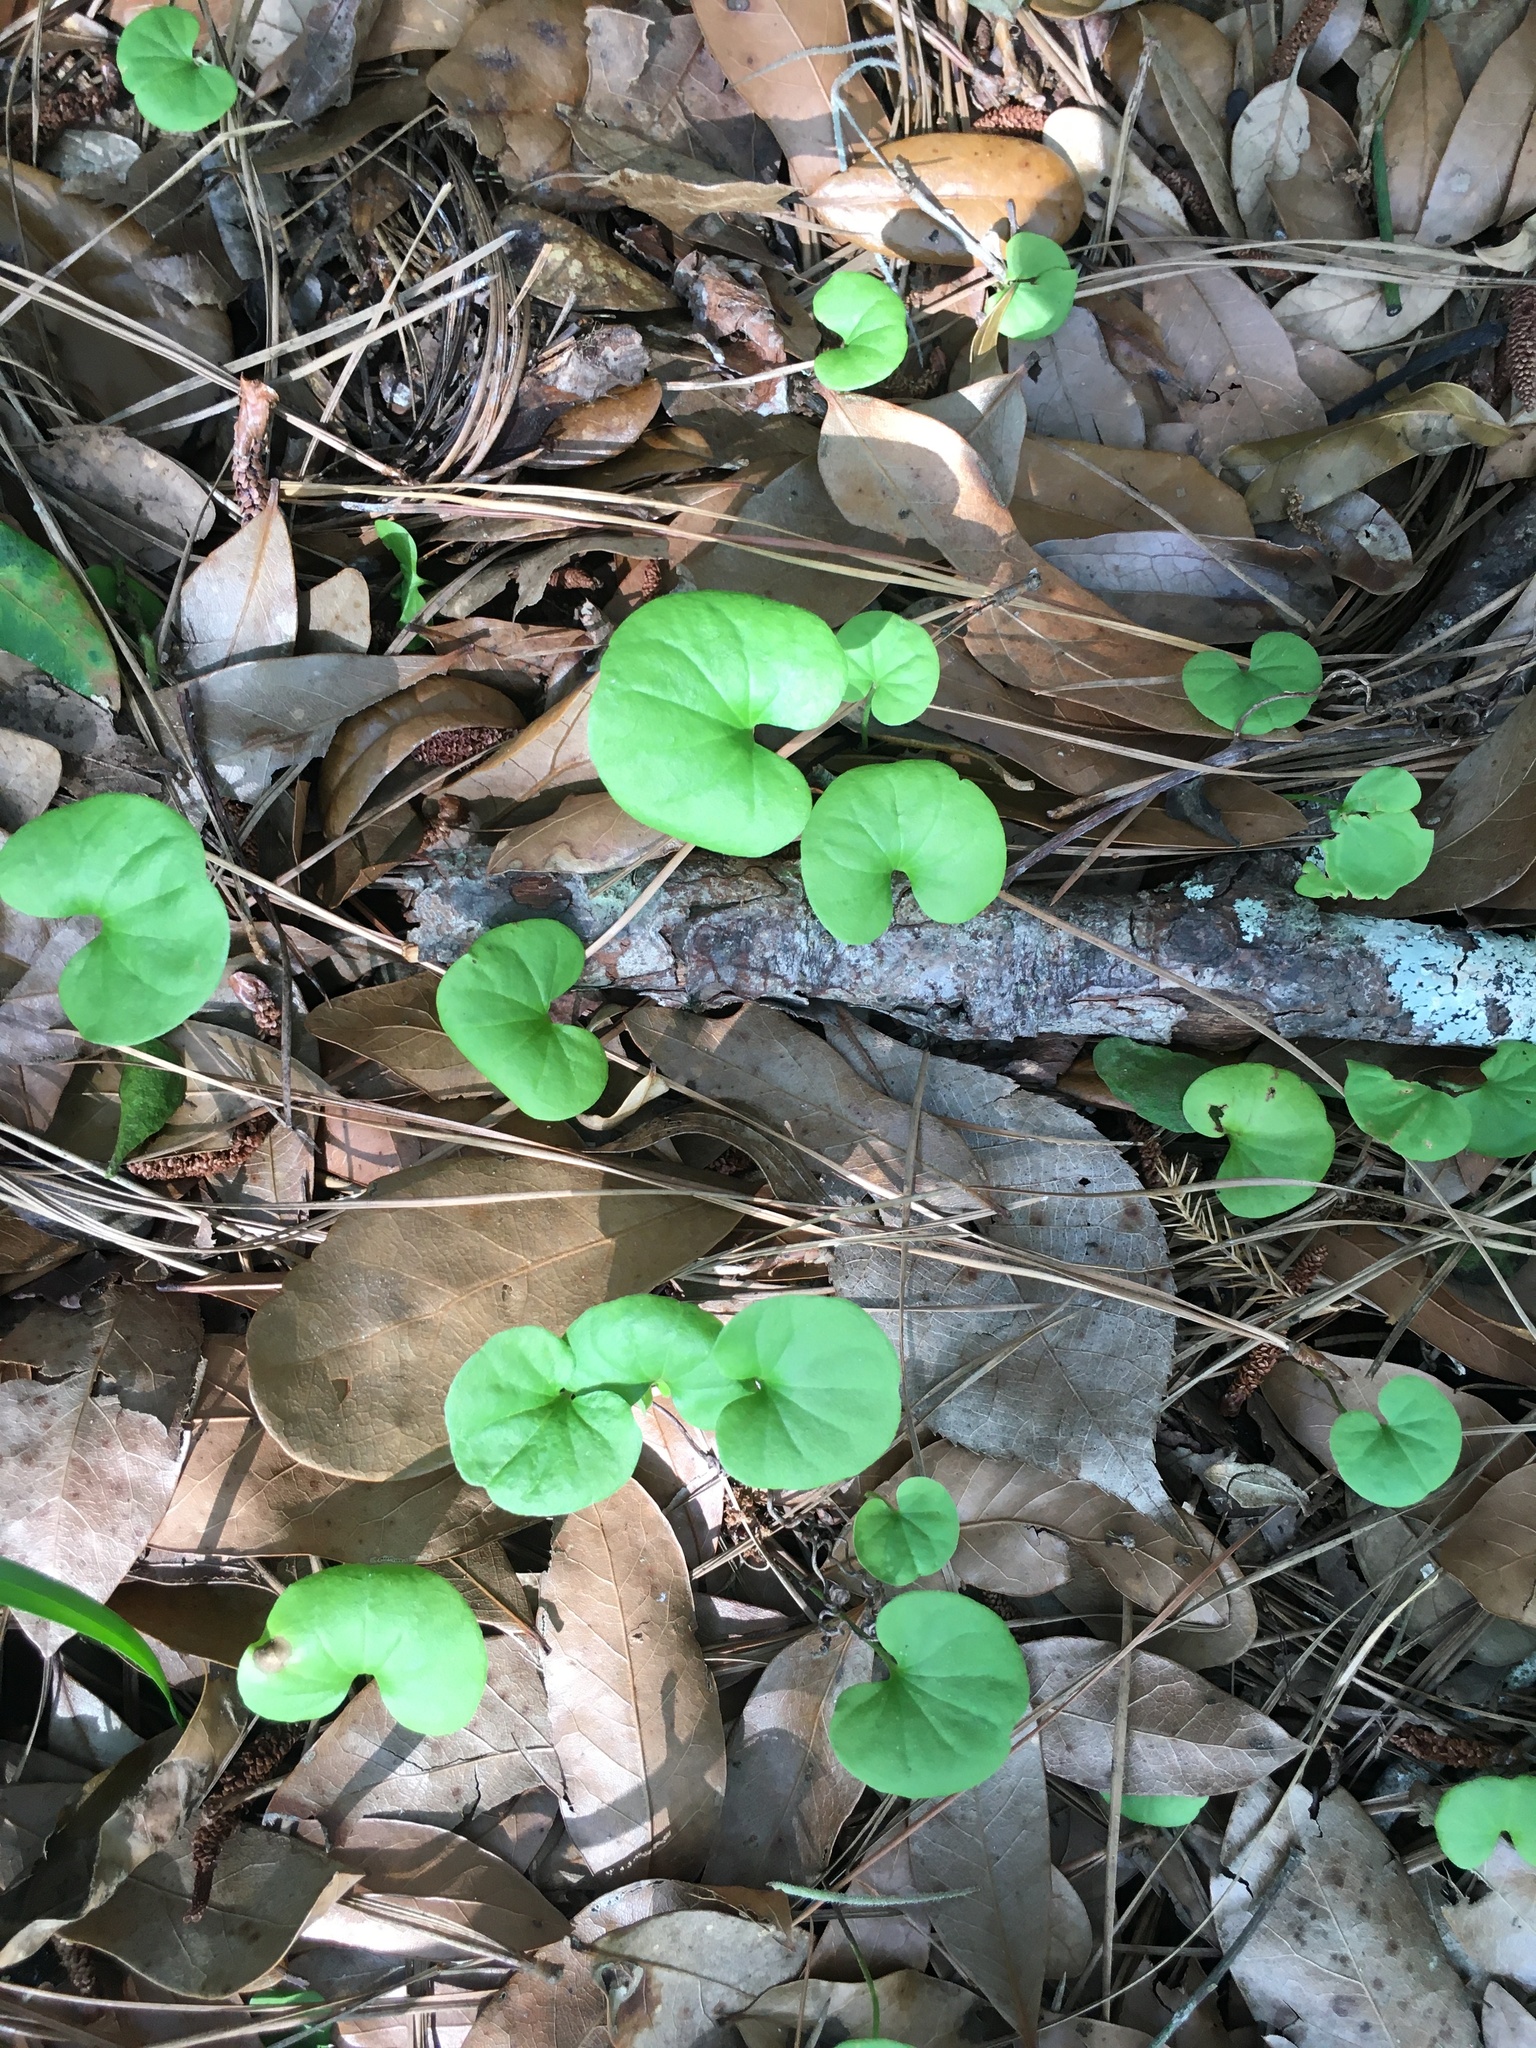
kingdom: Plantae
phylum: Tracheophyta
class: Magnoliopsida
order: Solanales
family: Convolvulaceae
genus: Dichondra
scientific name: Dichondra carolinensis
